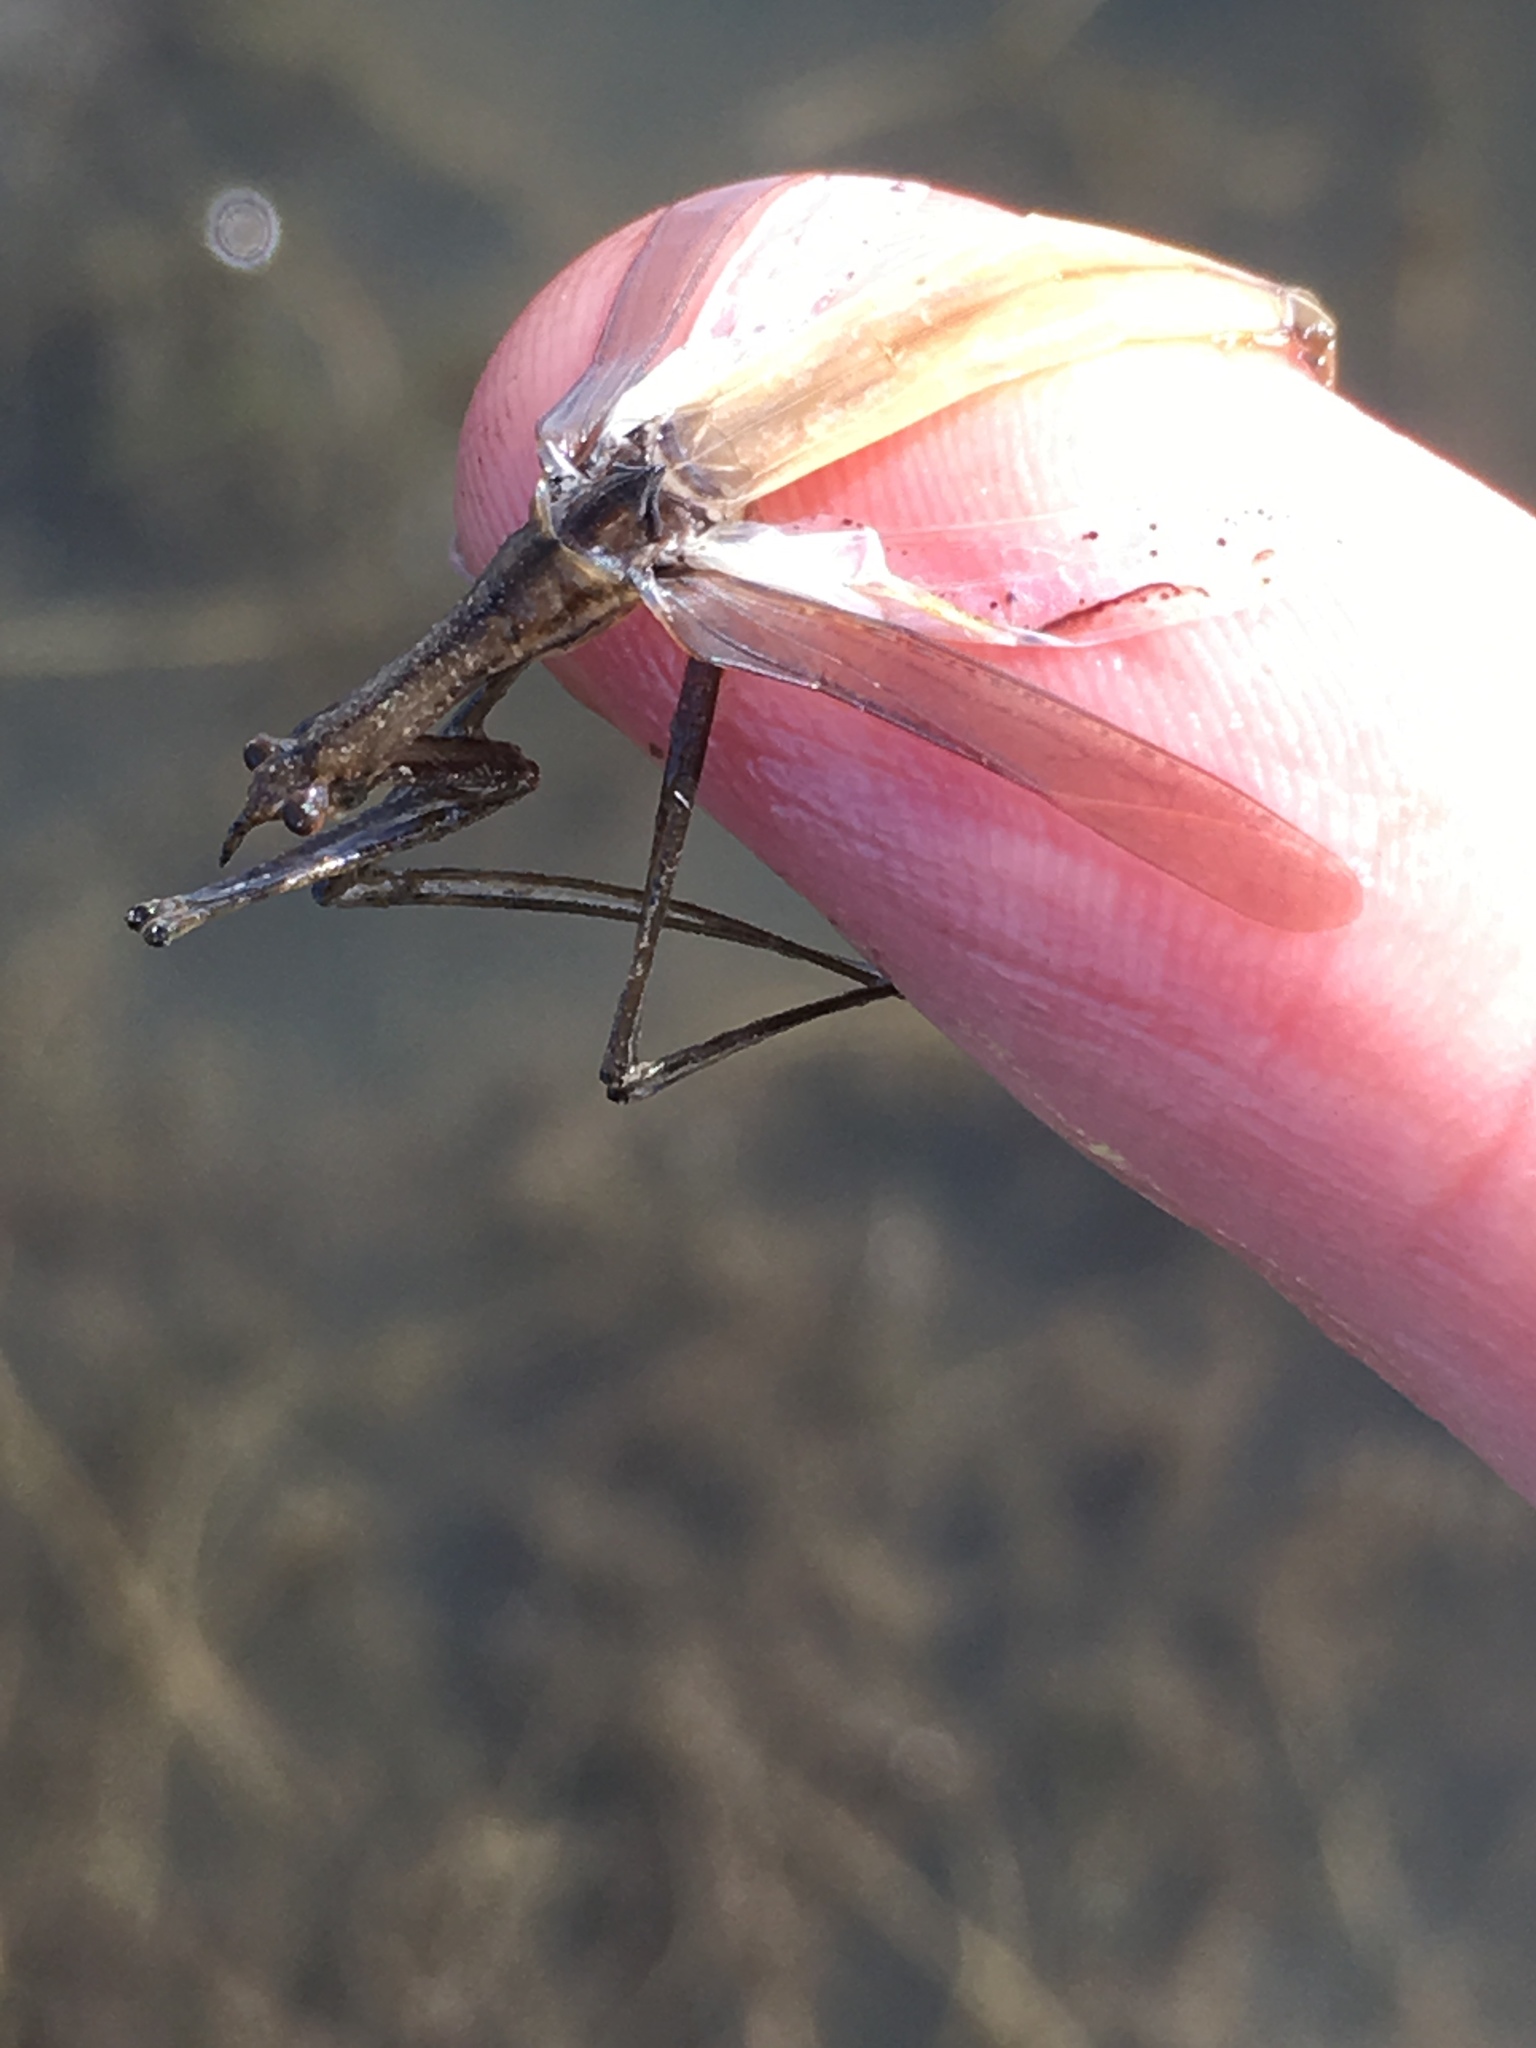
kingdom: Animalia
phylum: Arthropoda
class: Insecta
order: Hemiptera
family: Nepidae
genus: Ranatra
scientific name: Ranatra
